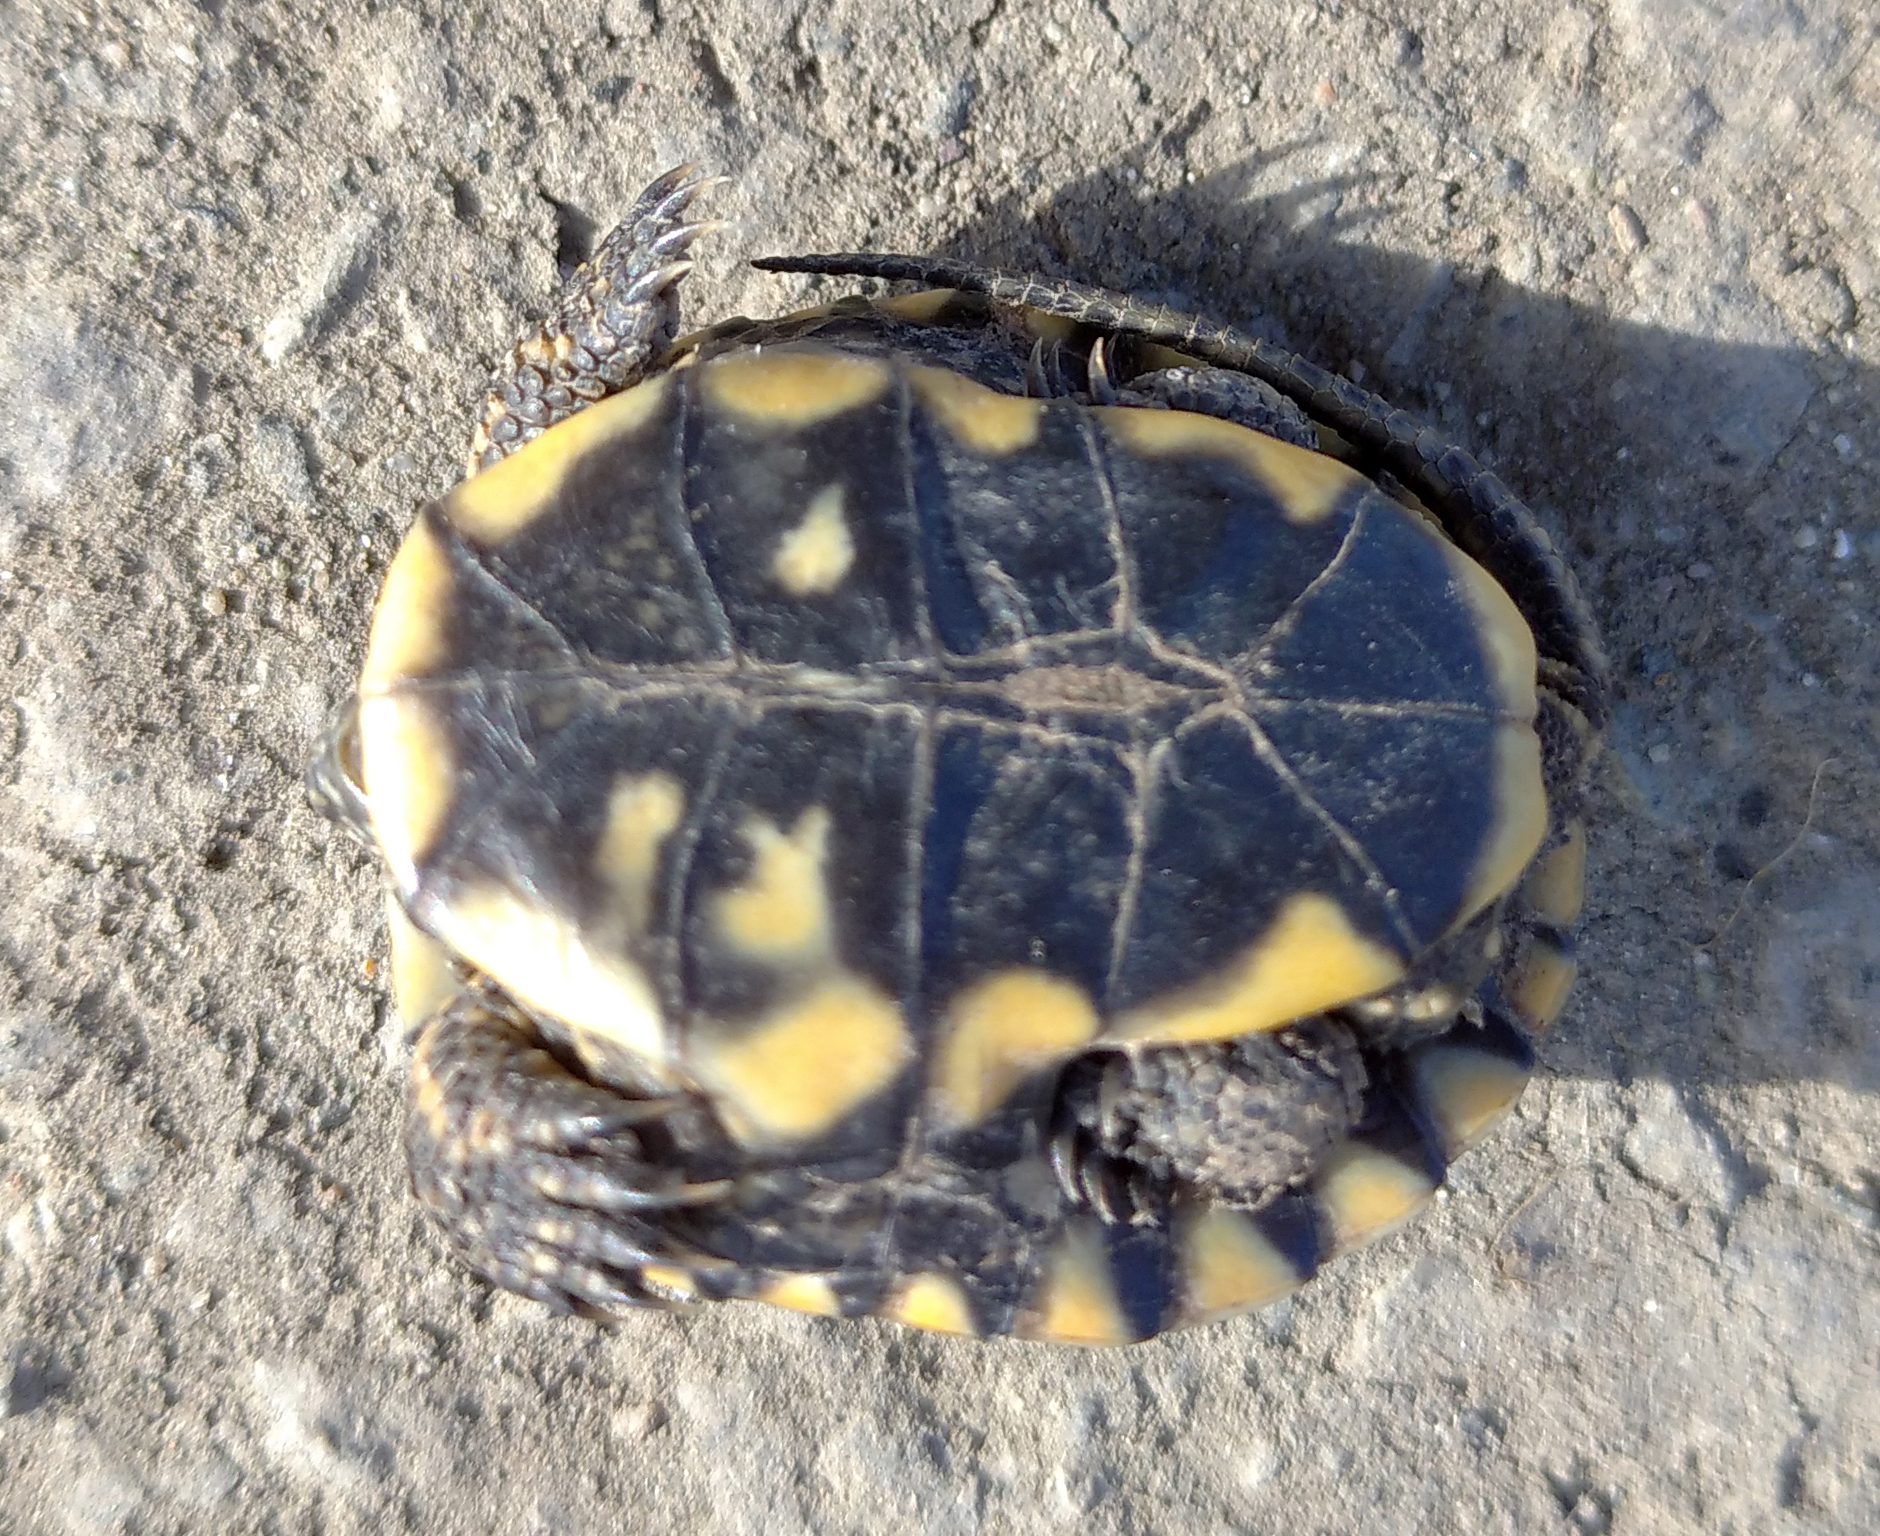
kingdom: Animalia
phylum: Chordata
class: Testudines
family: Emydidae
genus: Emys
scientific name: Emys orbicularis
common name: European pond turtle
